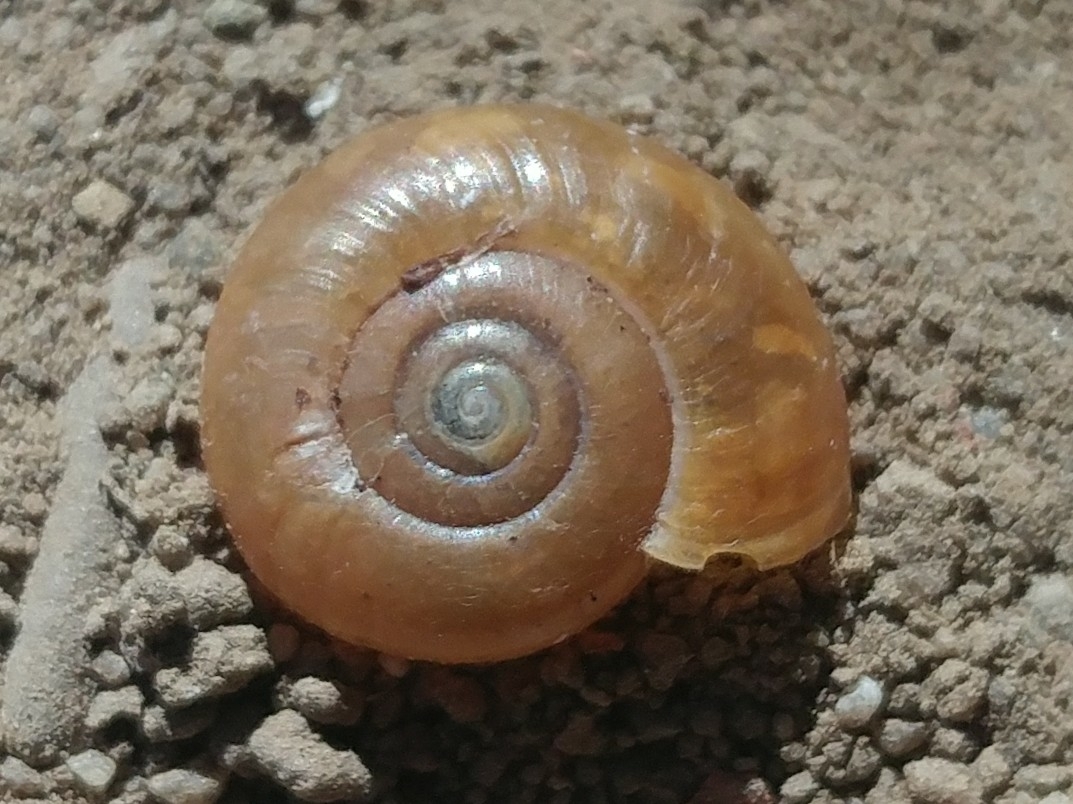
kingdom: Animalia
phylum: Mollusca
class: Gastropoda
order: Stylommatophora
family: Oxychilidae
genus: Oxychilus
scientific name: Oxychilus draparnaudi
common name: Draparnaud's glass snail
